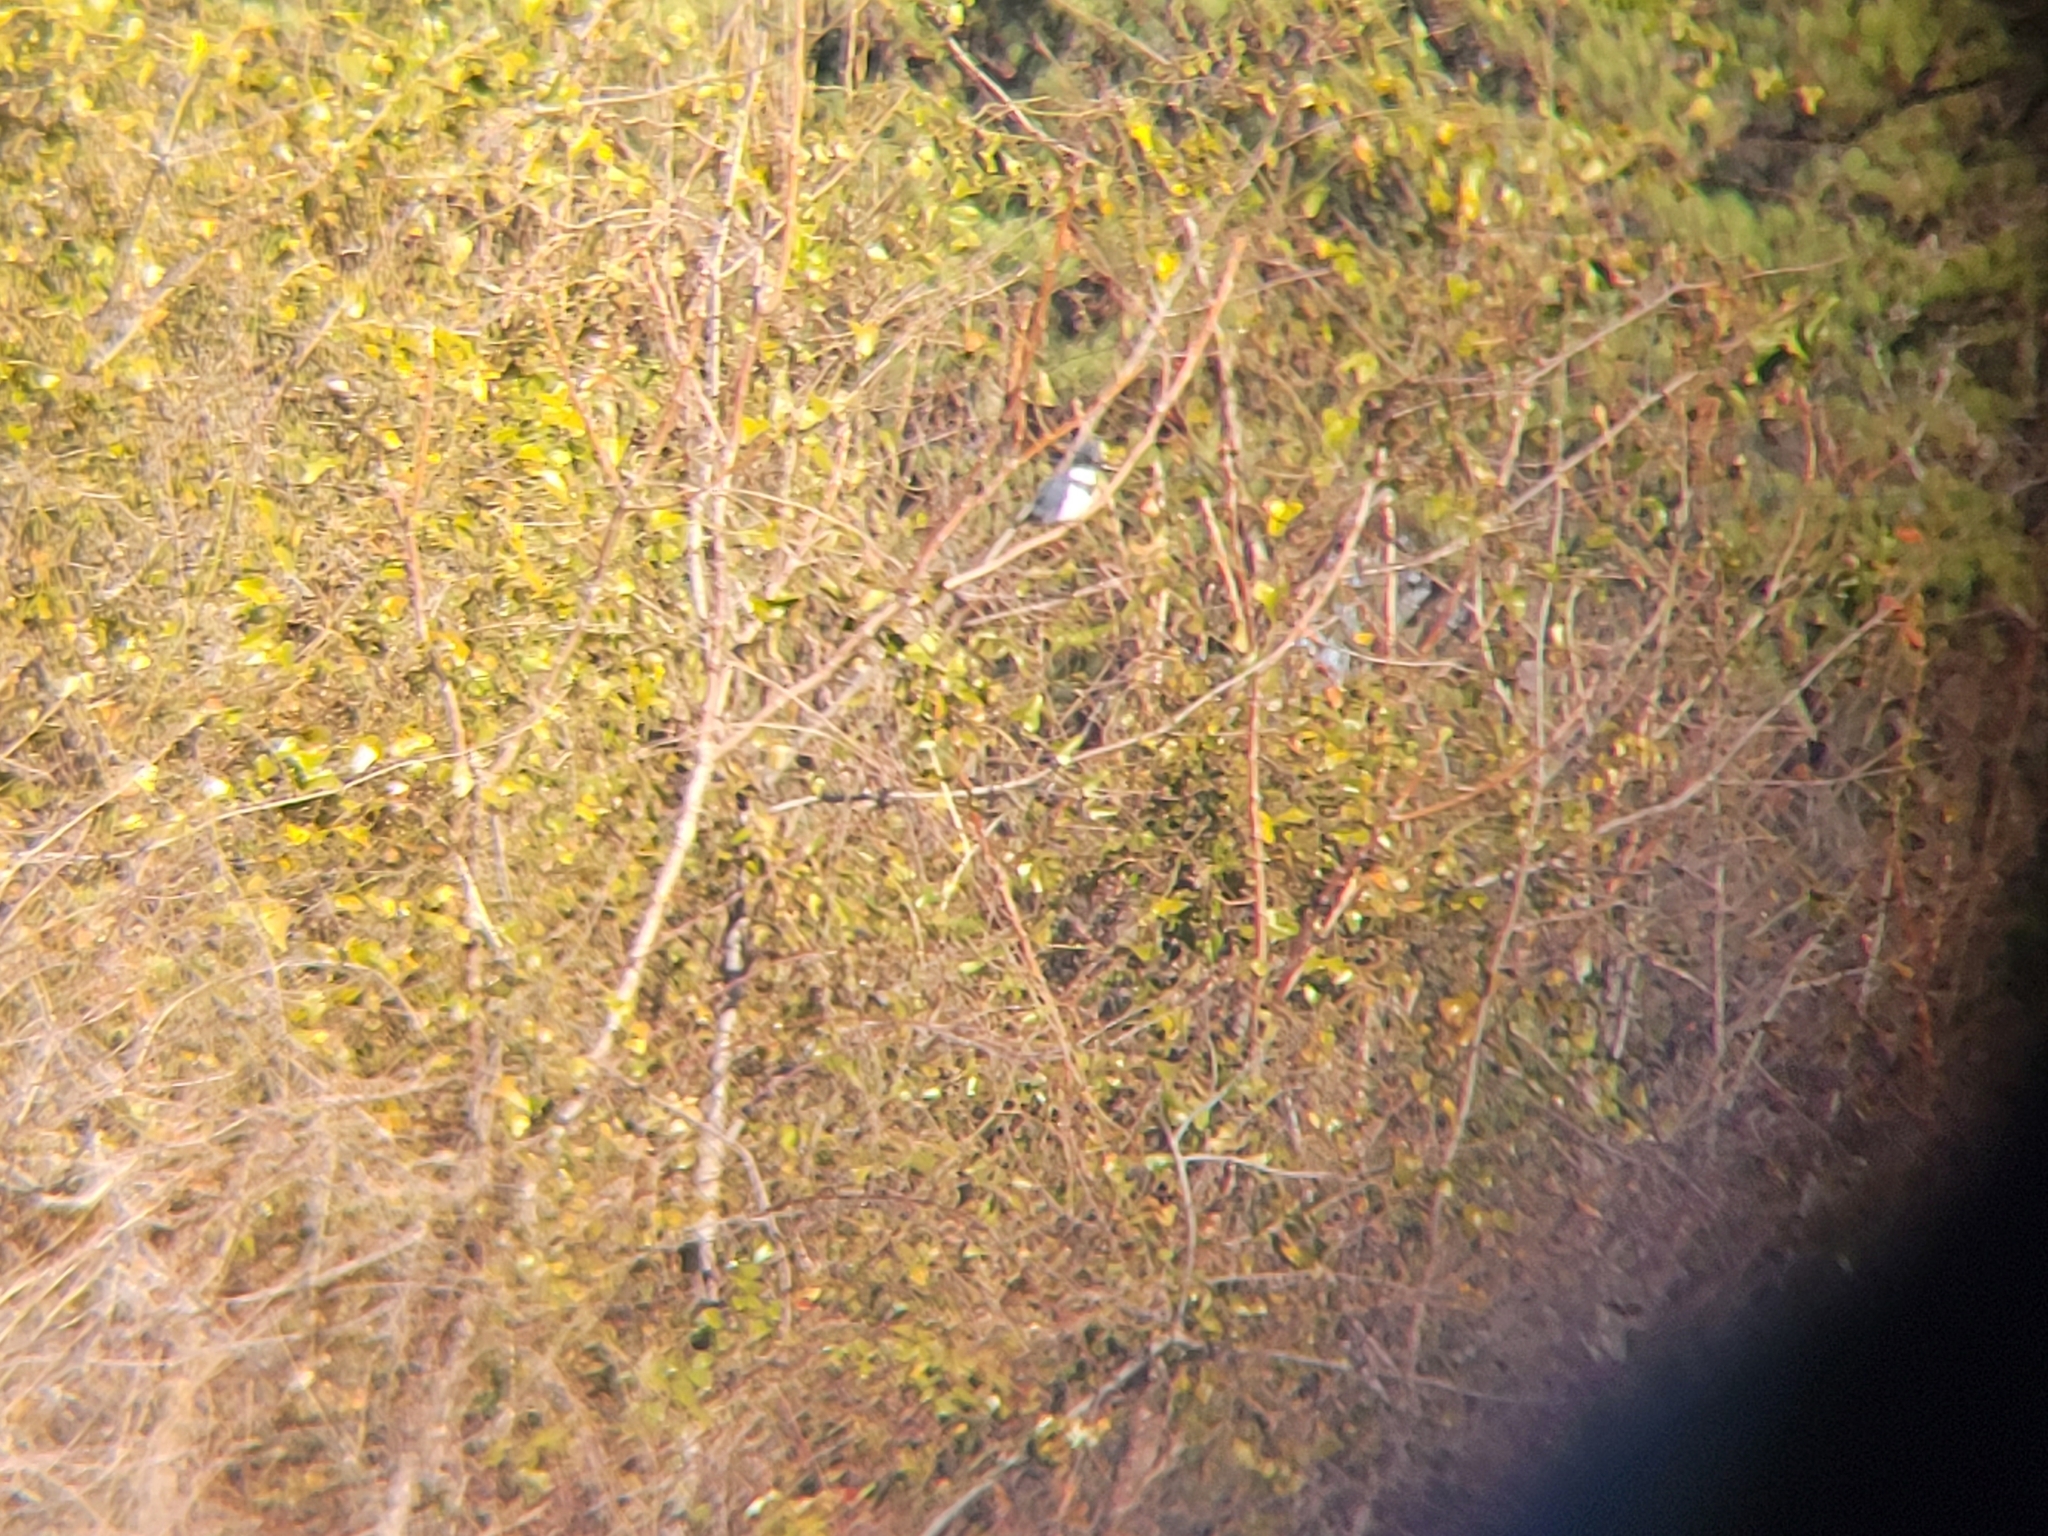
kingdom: Animalia
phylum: Chordata
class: Aves
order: Coraciiformes
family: Alcedinidae
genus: Megaceryle
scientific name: Megaceryle alcyon
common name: Belted kingfisher
